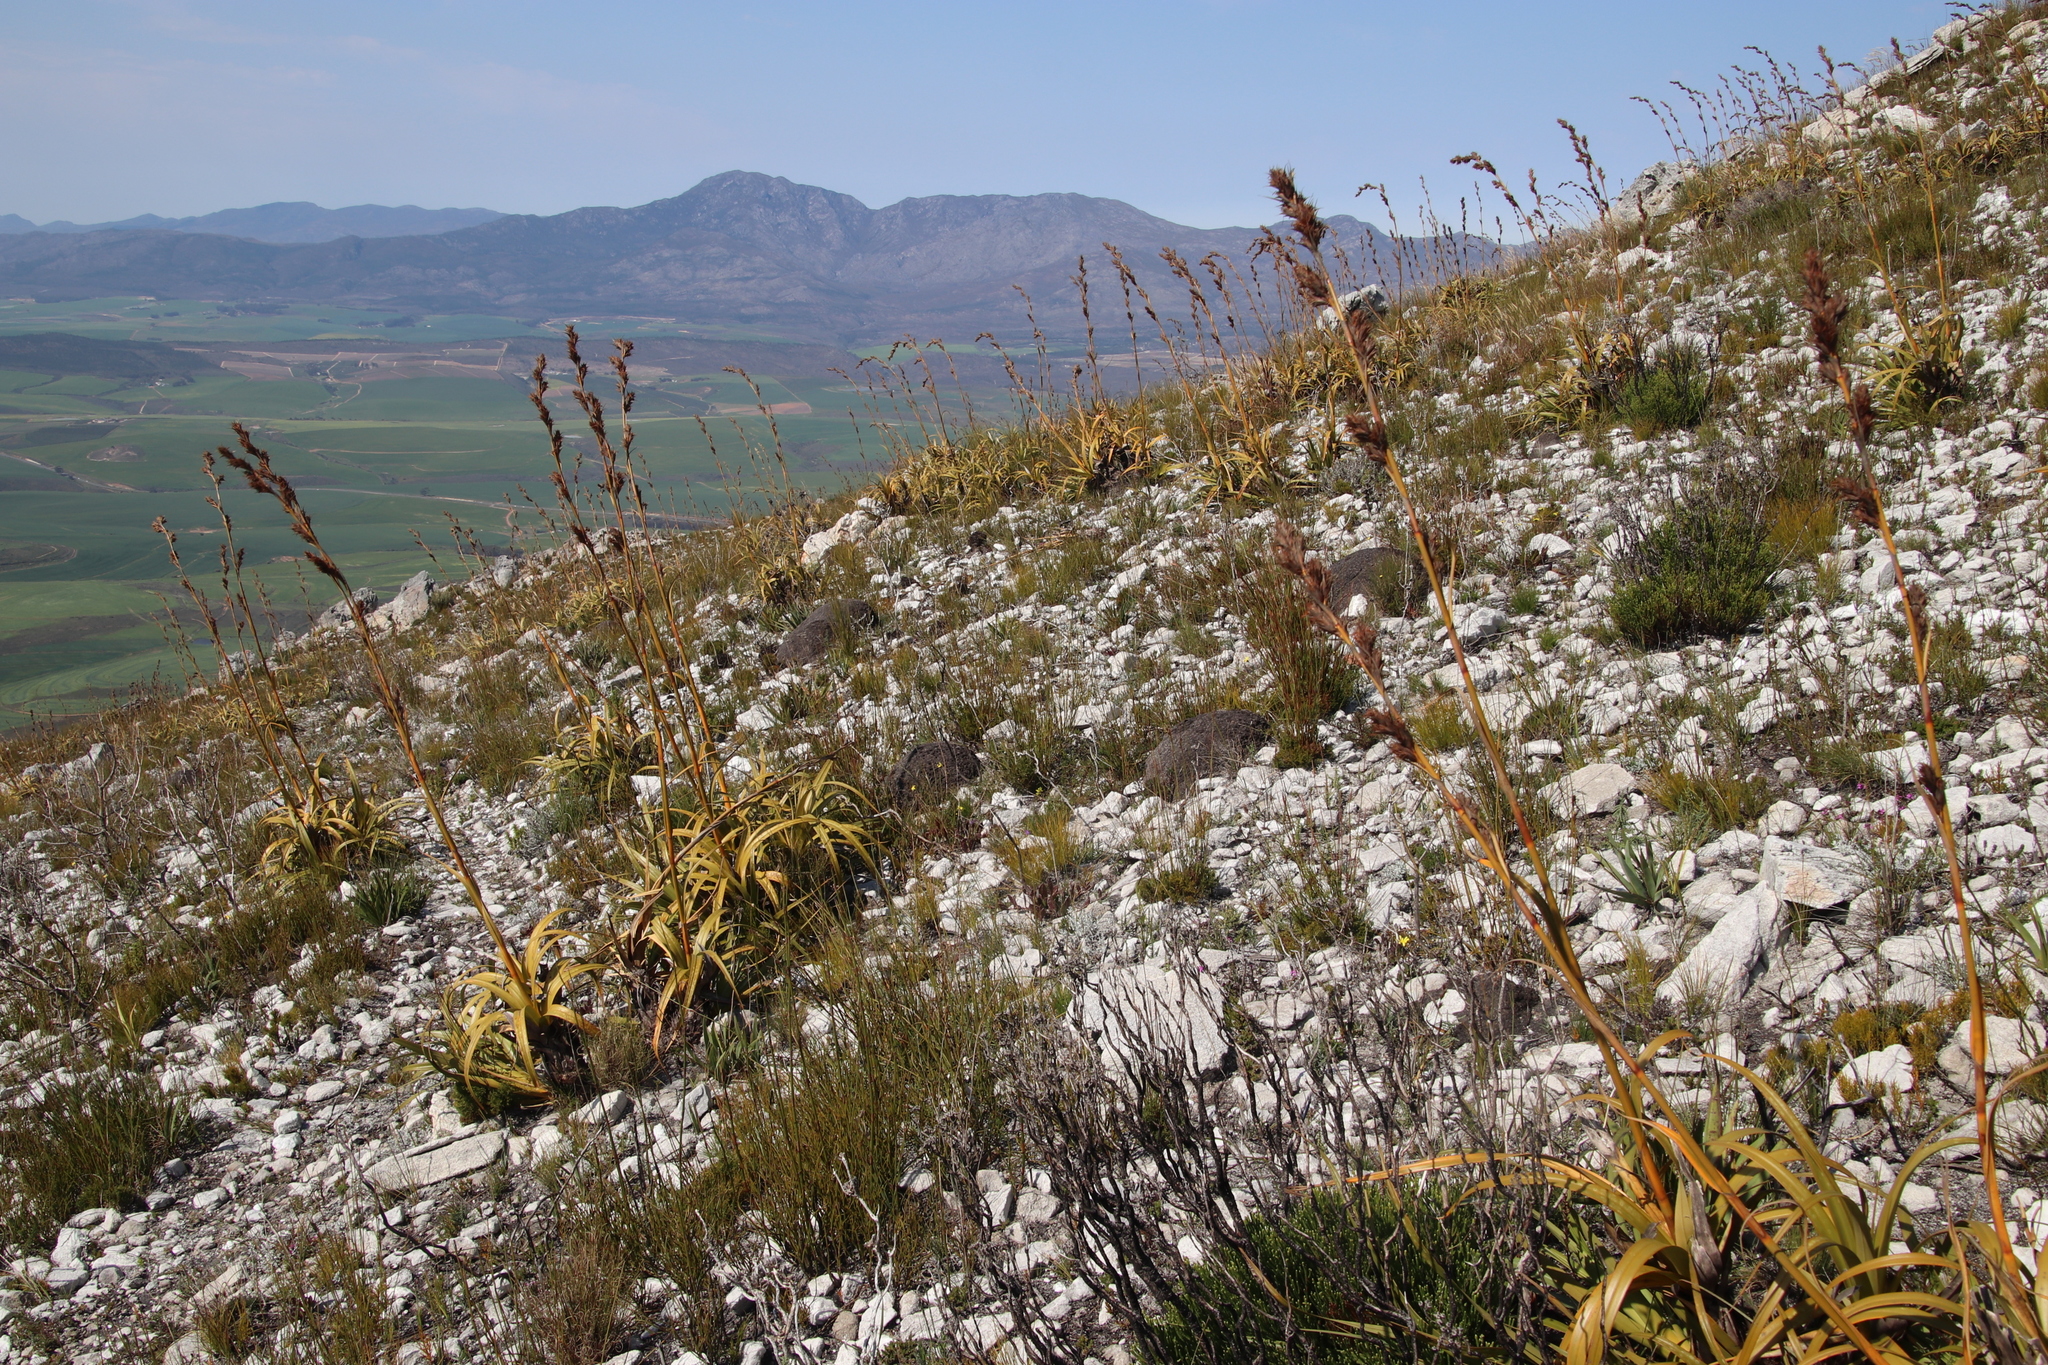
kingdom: Plantae
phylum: Tracheophyta
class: Liliopsida
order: Poales
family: Cyperaceae
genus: Tetraria
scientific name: Tetraria thermalis
